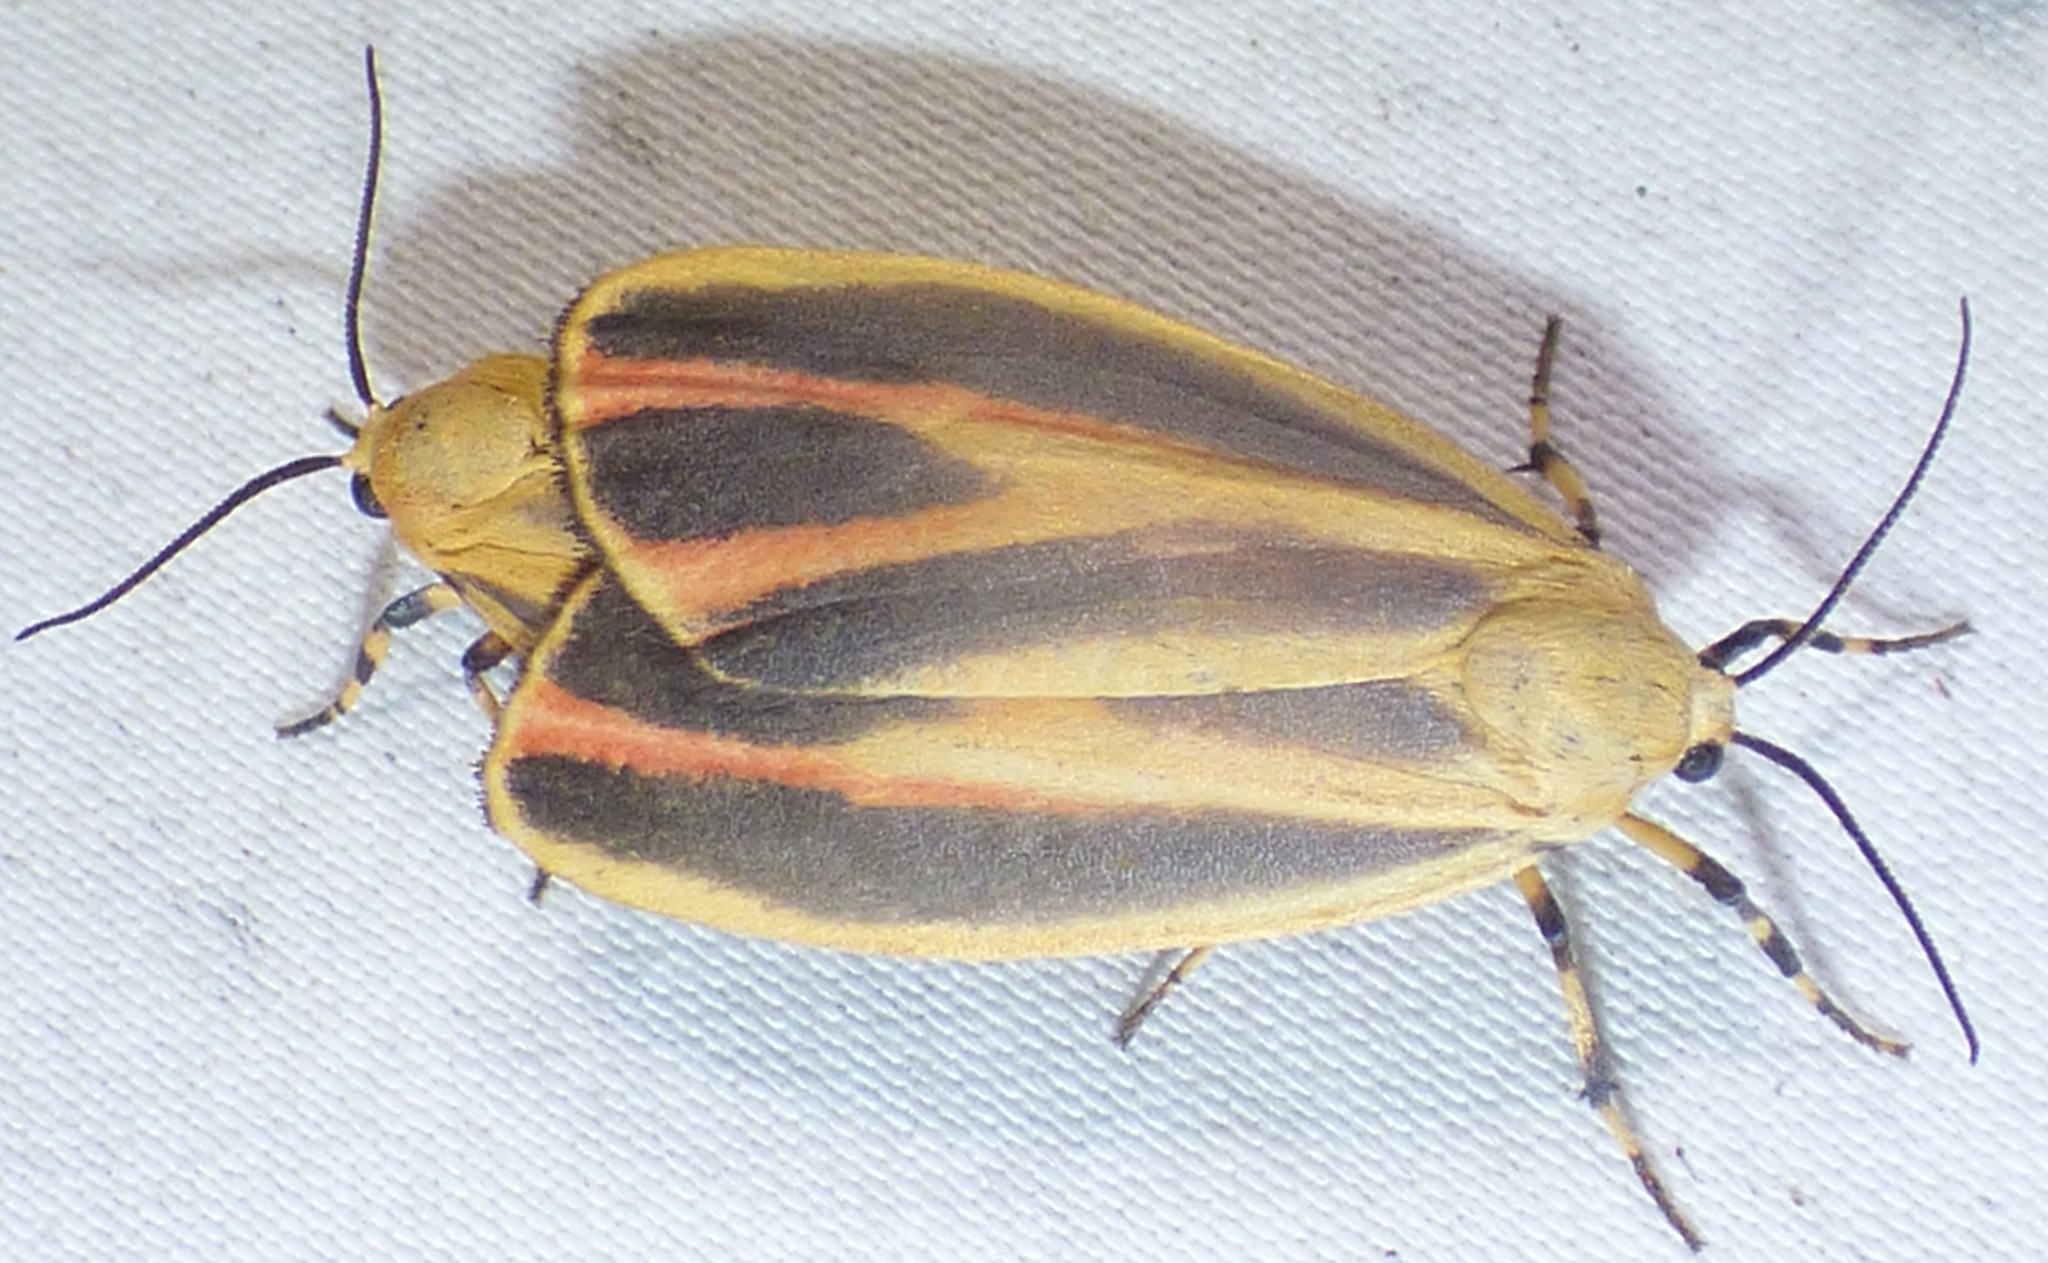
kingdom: Animalia
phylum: Arthropoda
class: Insecta
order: Lepidoptera
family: Erebidae
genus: Hypoprepia
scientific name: Hypoprepia fucosa
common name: Painted lichen moth
